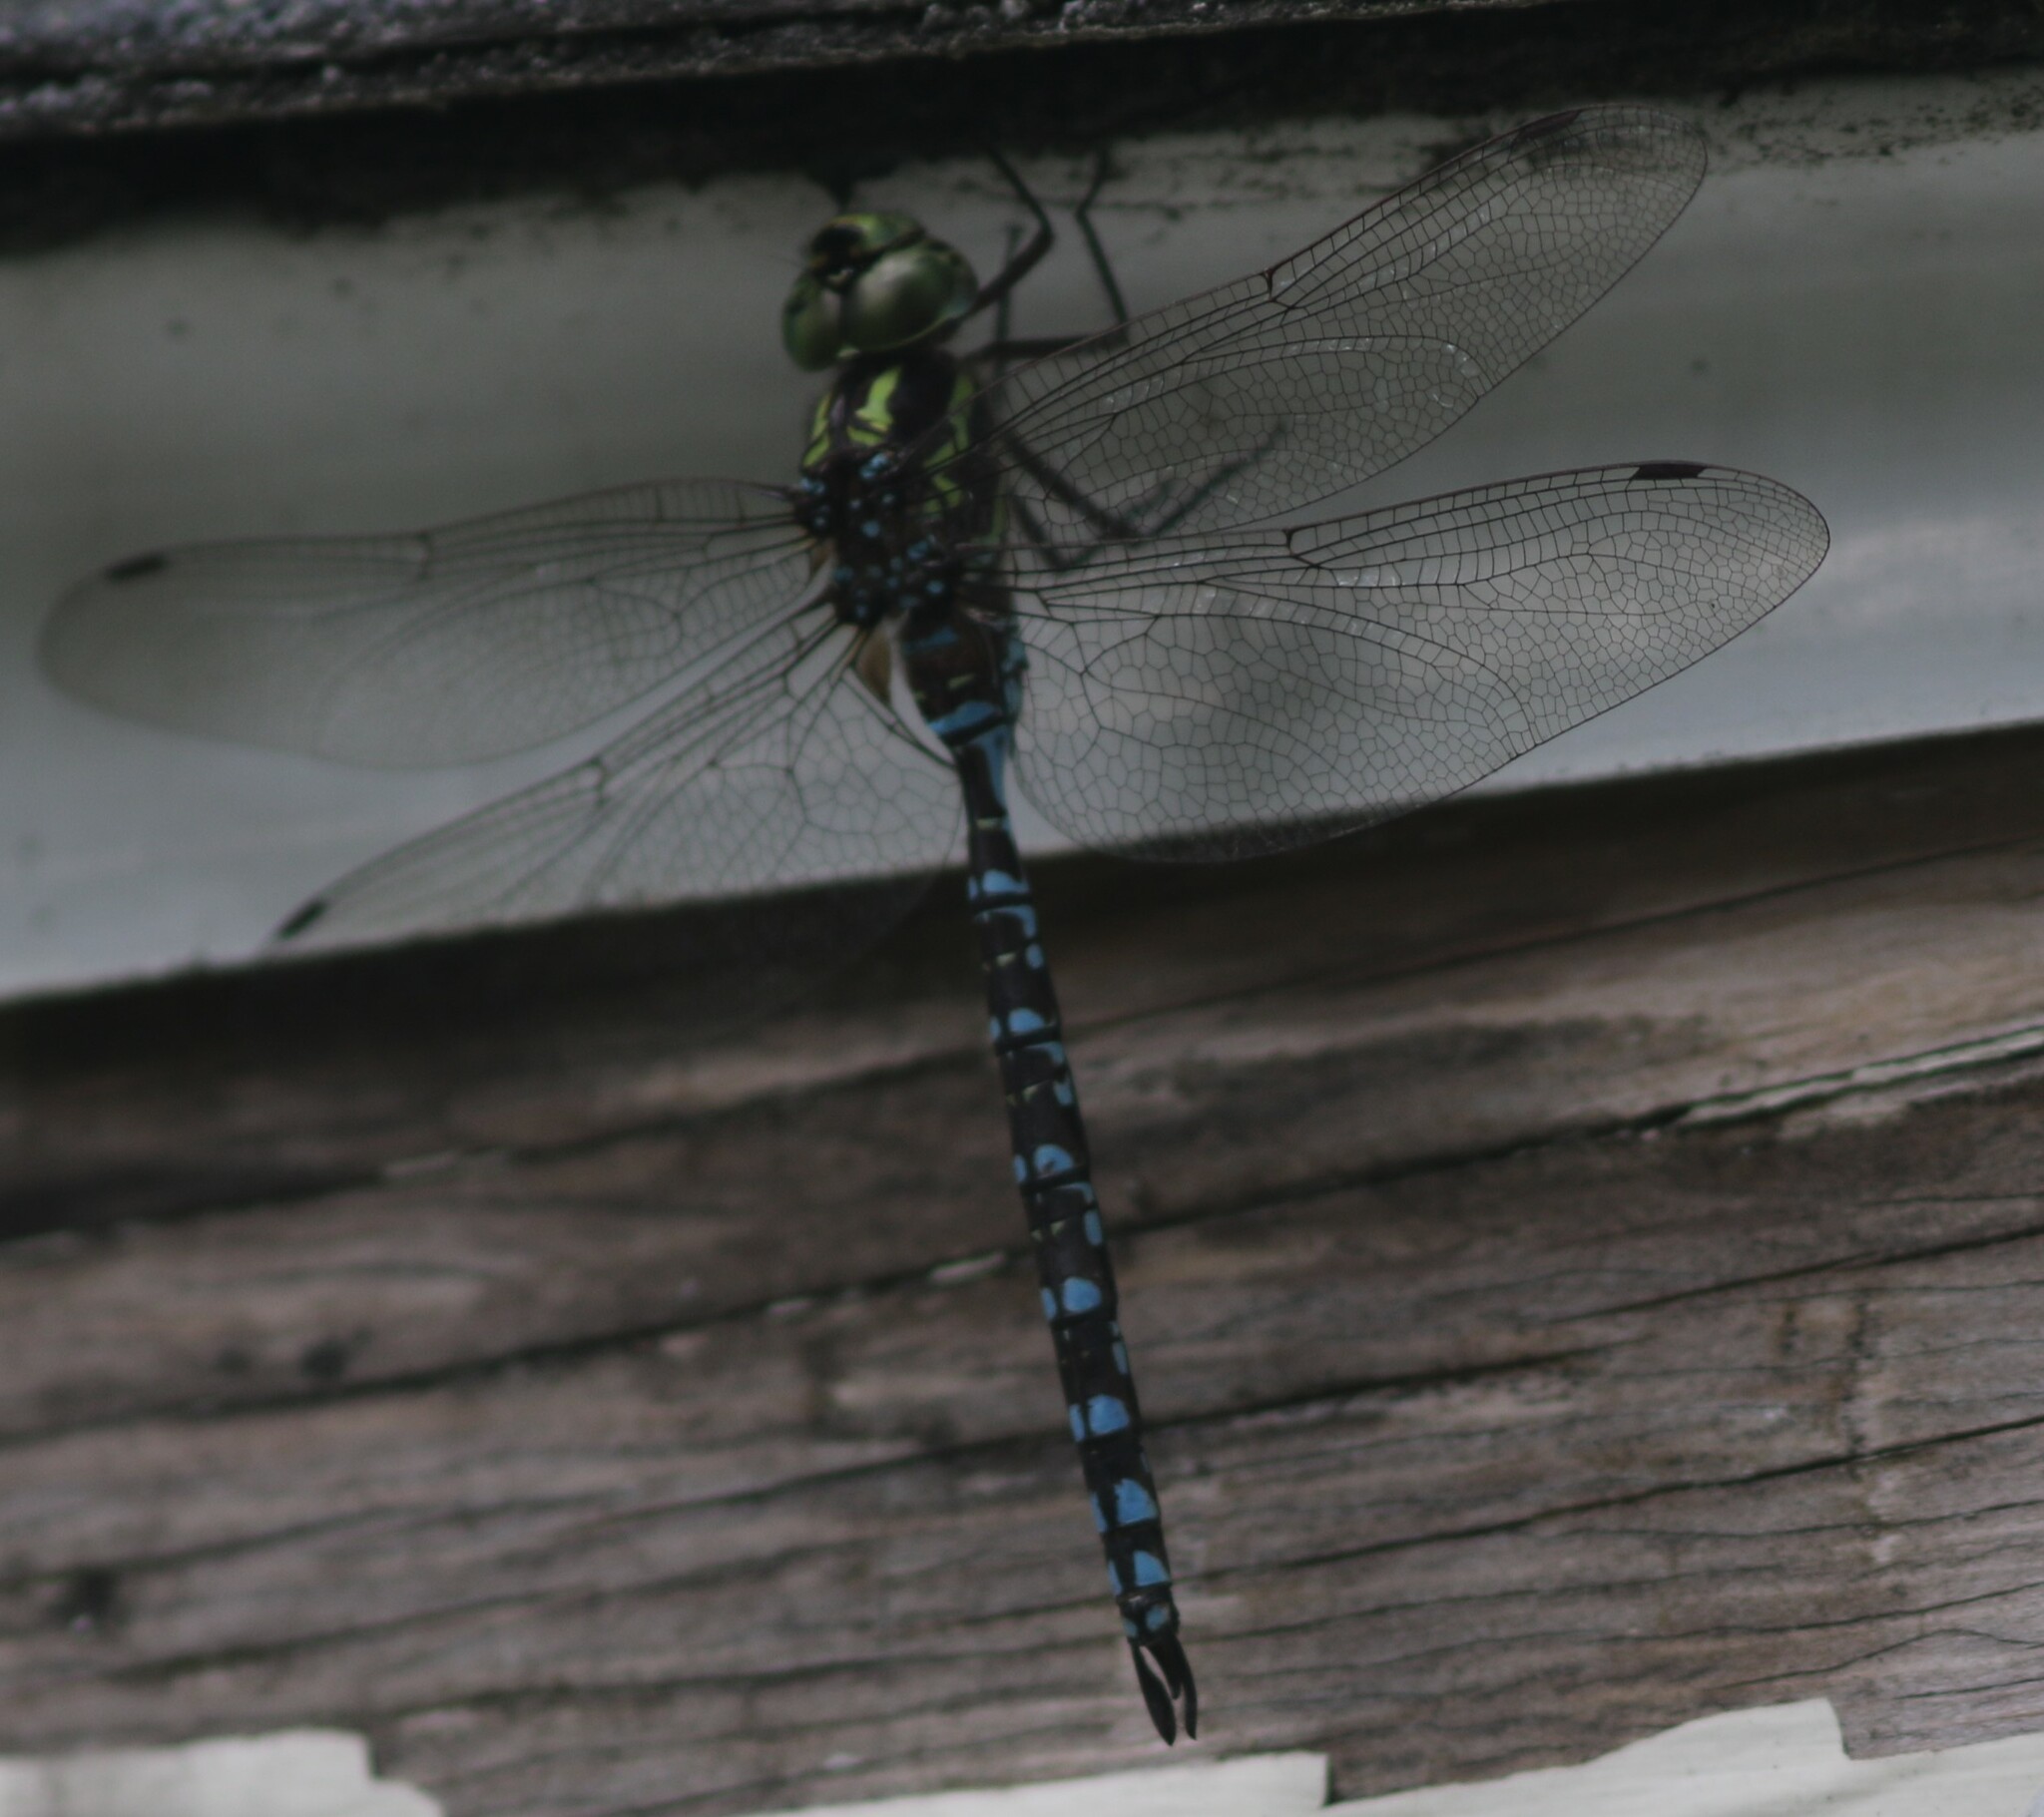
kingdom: Animalia
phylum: Arthropoda
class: Insecta
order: Odonata
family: Aeshnidae
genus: Aeshna
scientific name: Aeshna verticalis
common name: Green-striped darner
